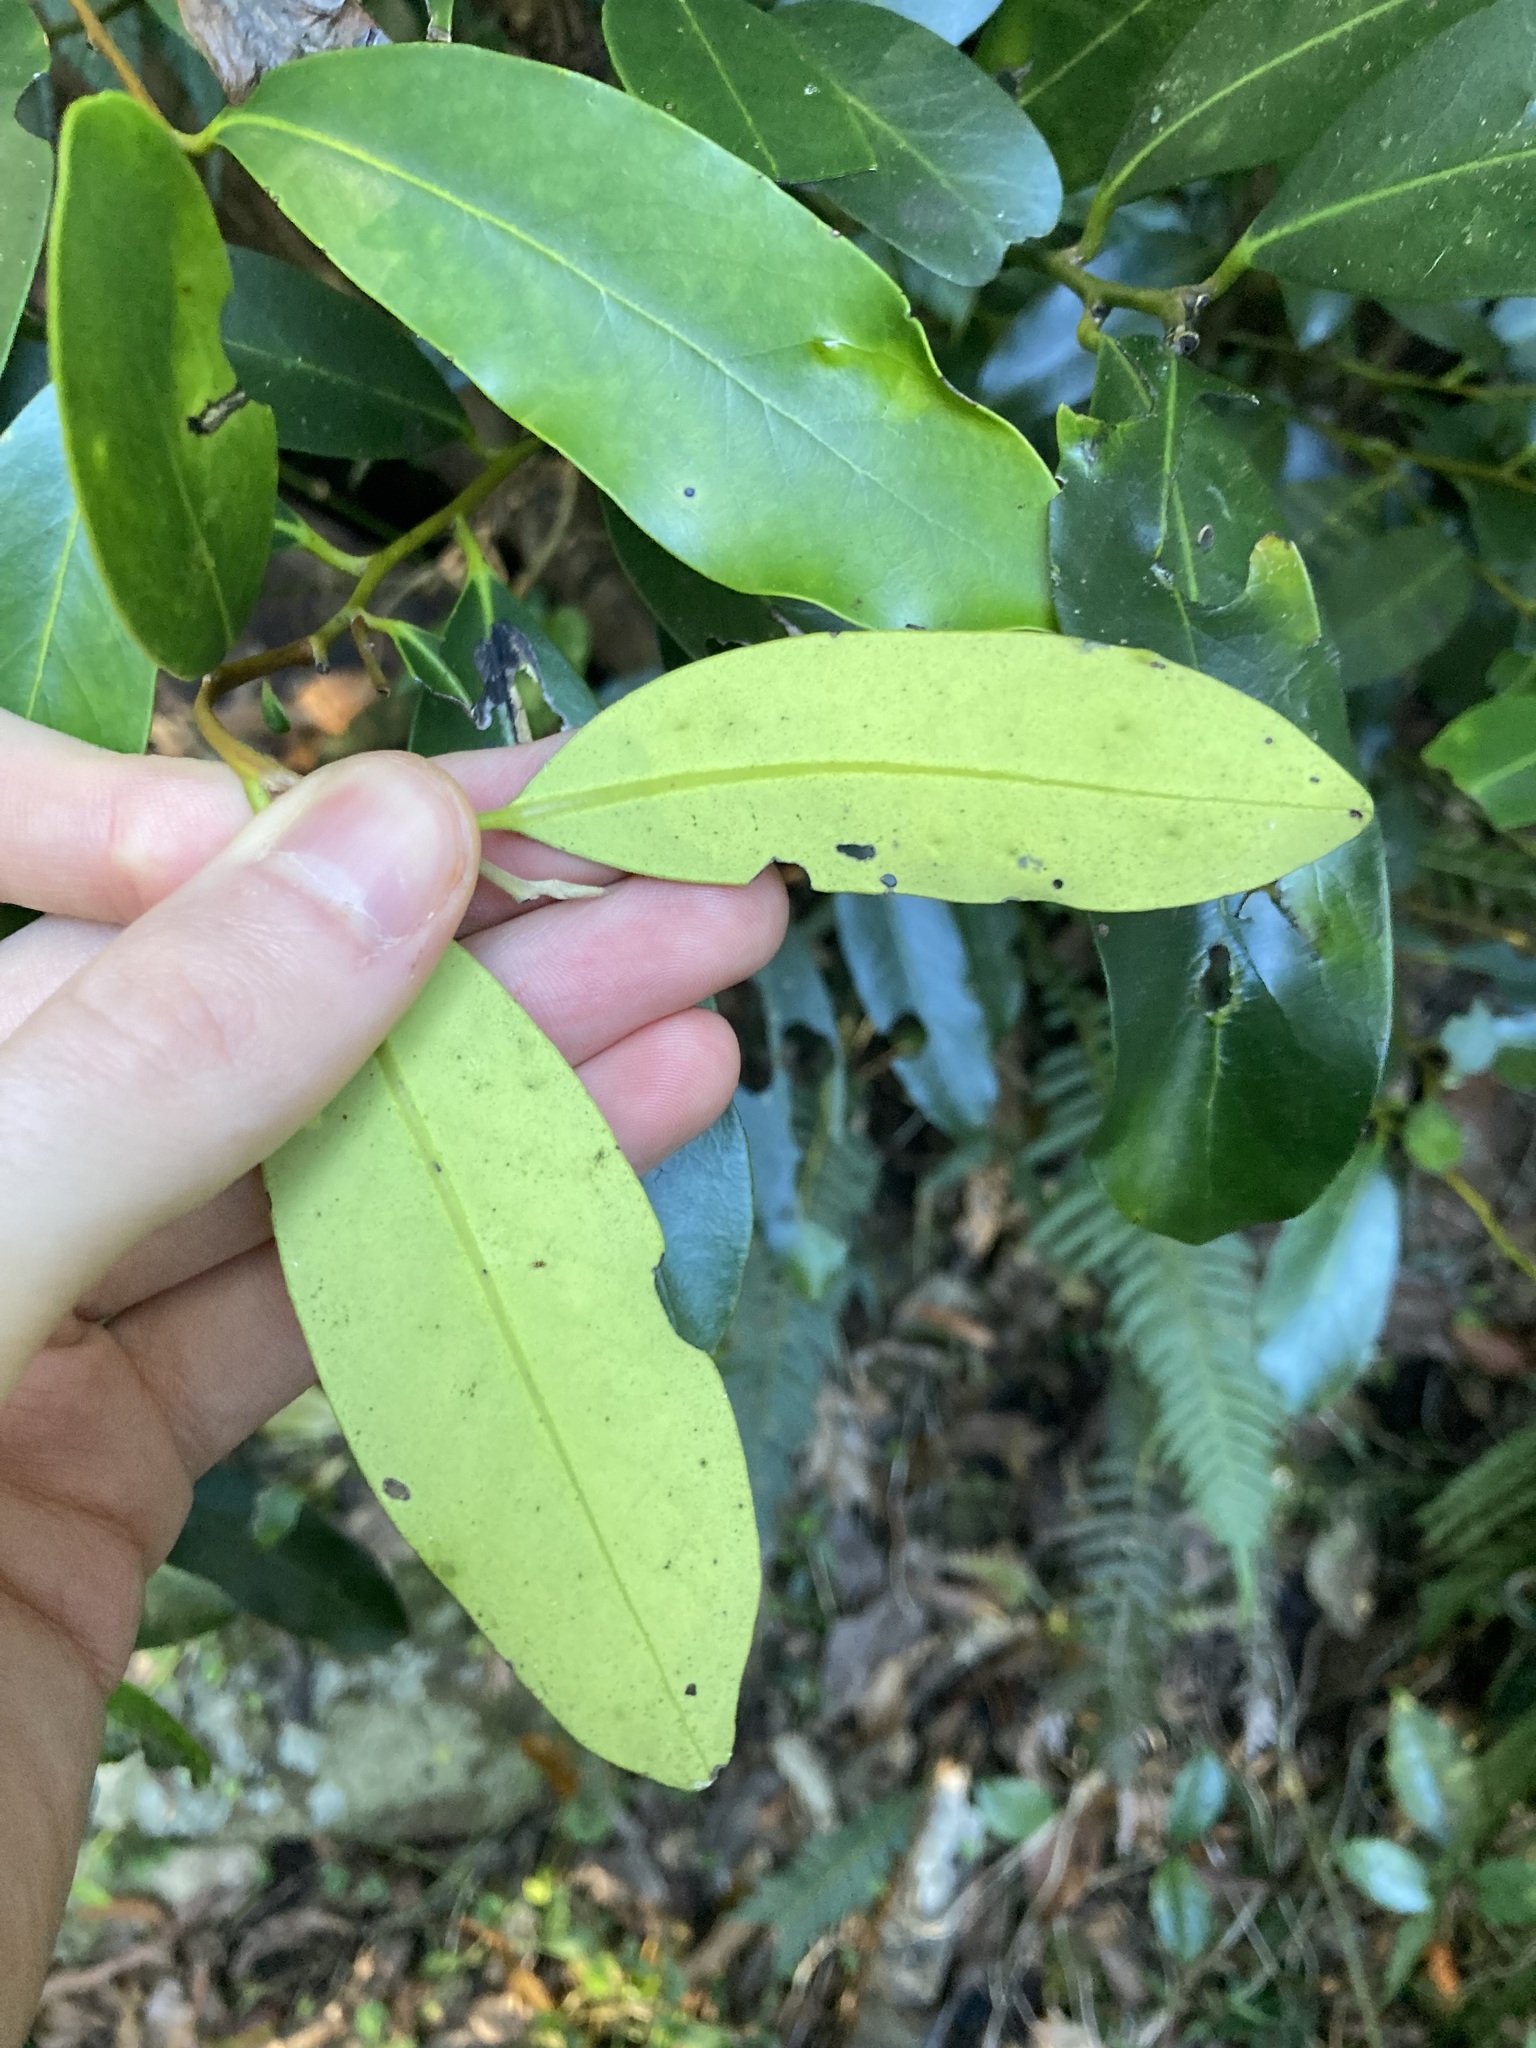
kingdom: Plantae
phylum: Tracheophyta
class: Magnoliopsida
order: Ericales
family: Ebenaceae
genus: Diospyros
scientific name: Diospyros australis
